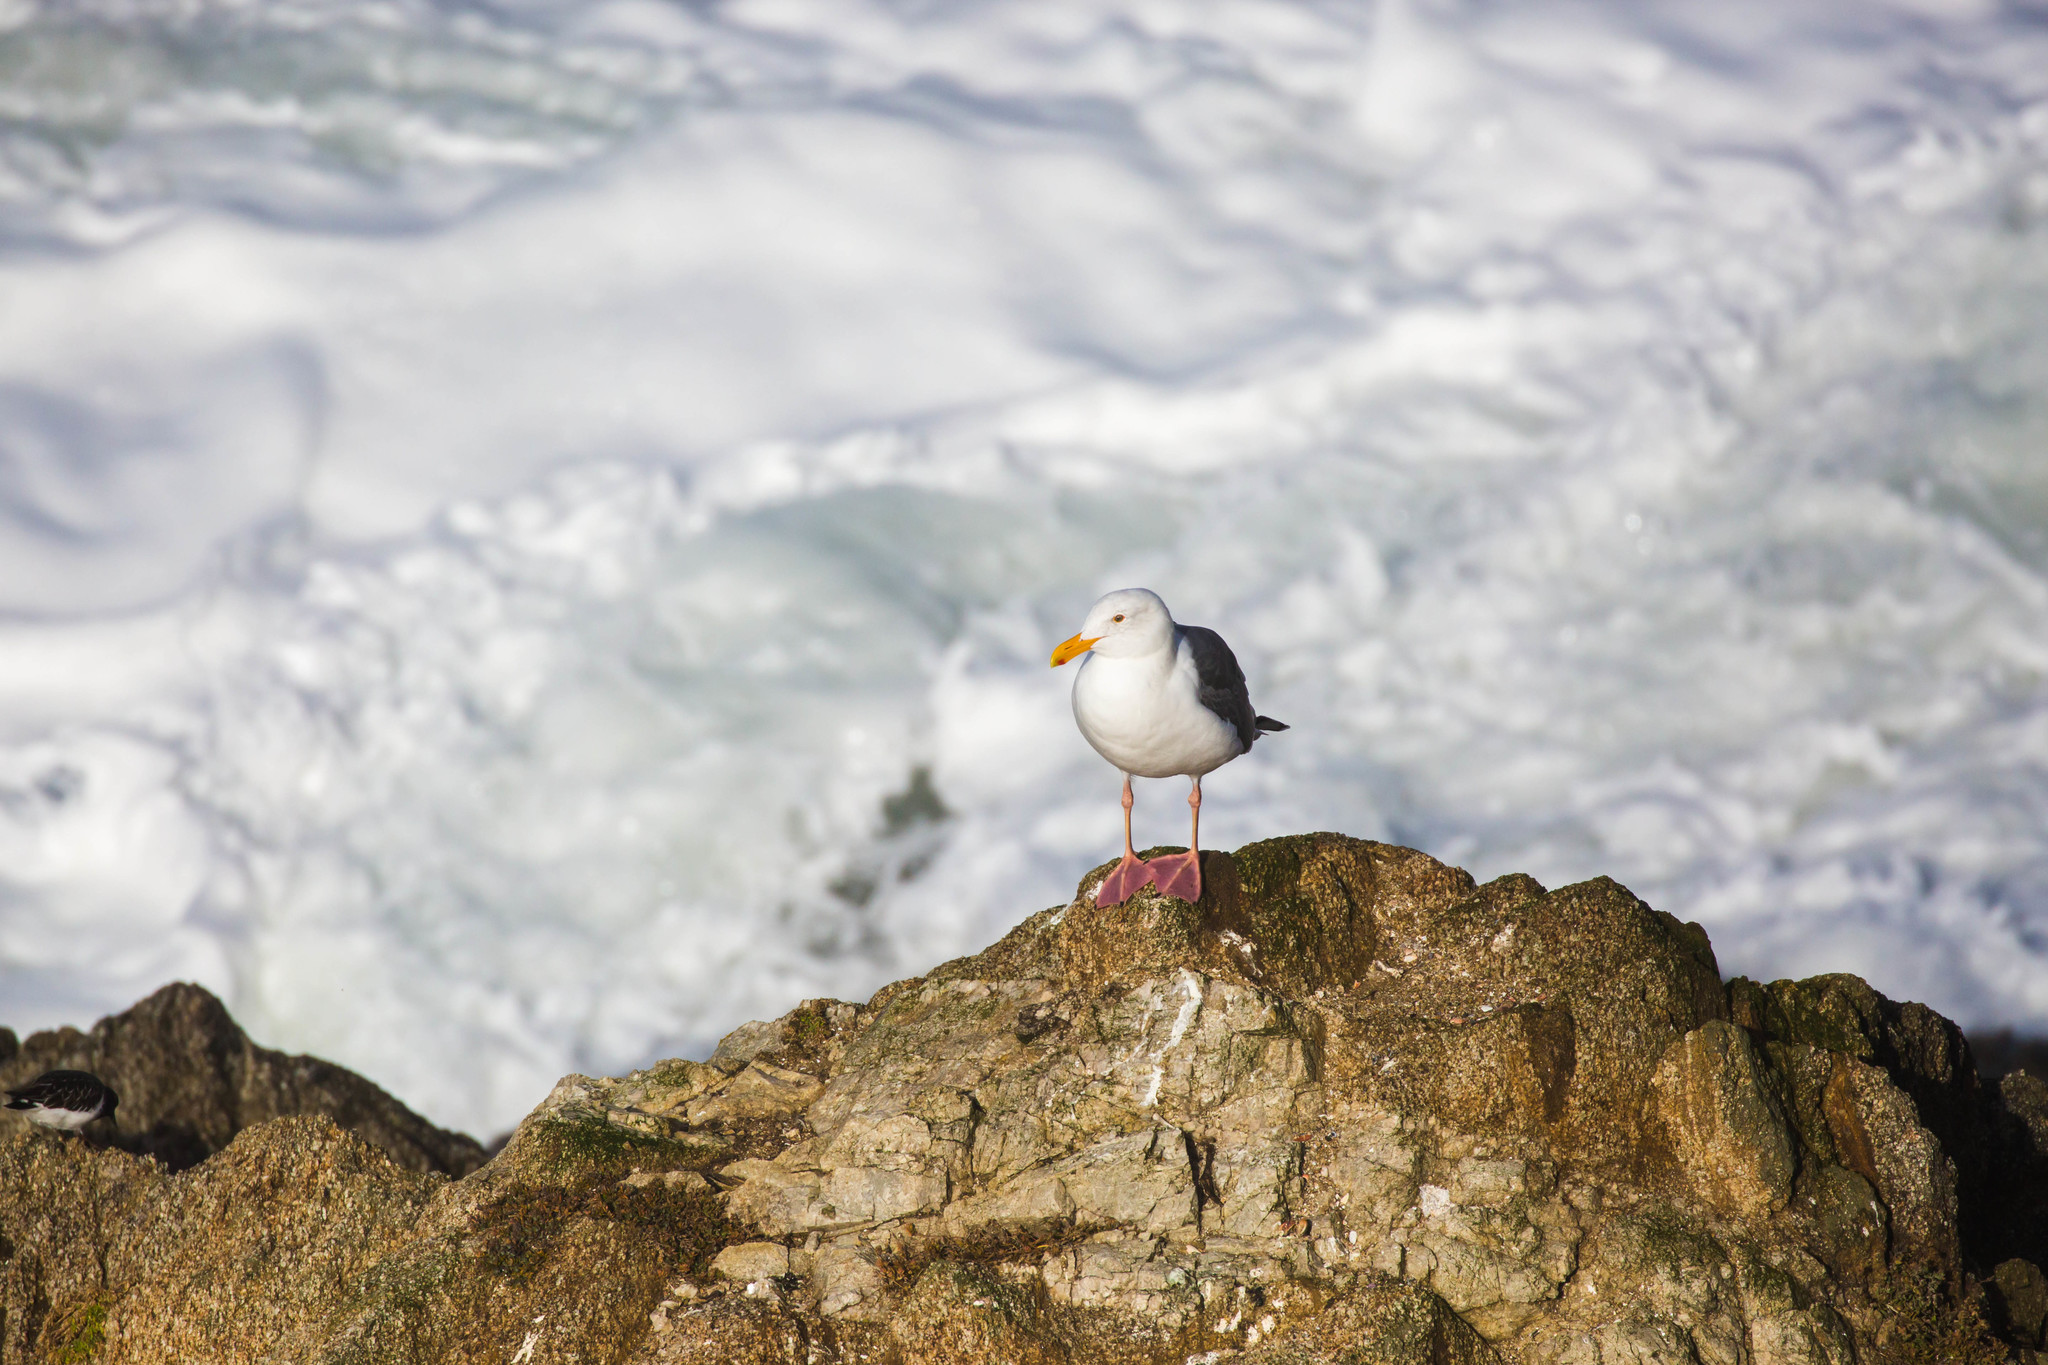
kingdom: Animalia
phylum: Chordata
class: Aves
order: Charadriiformes
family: Laridae
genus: Larus
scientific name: Larus occidentalis
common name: Western gull
